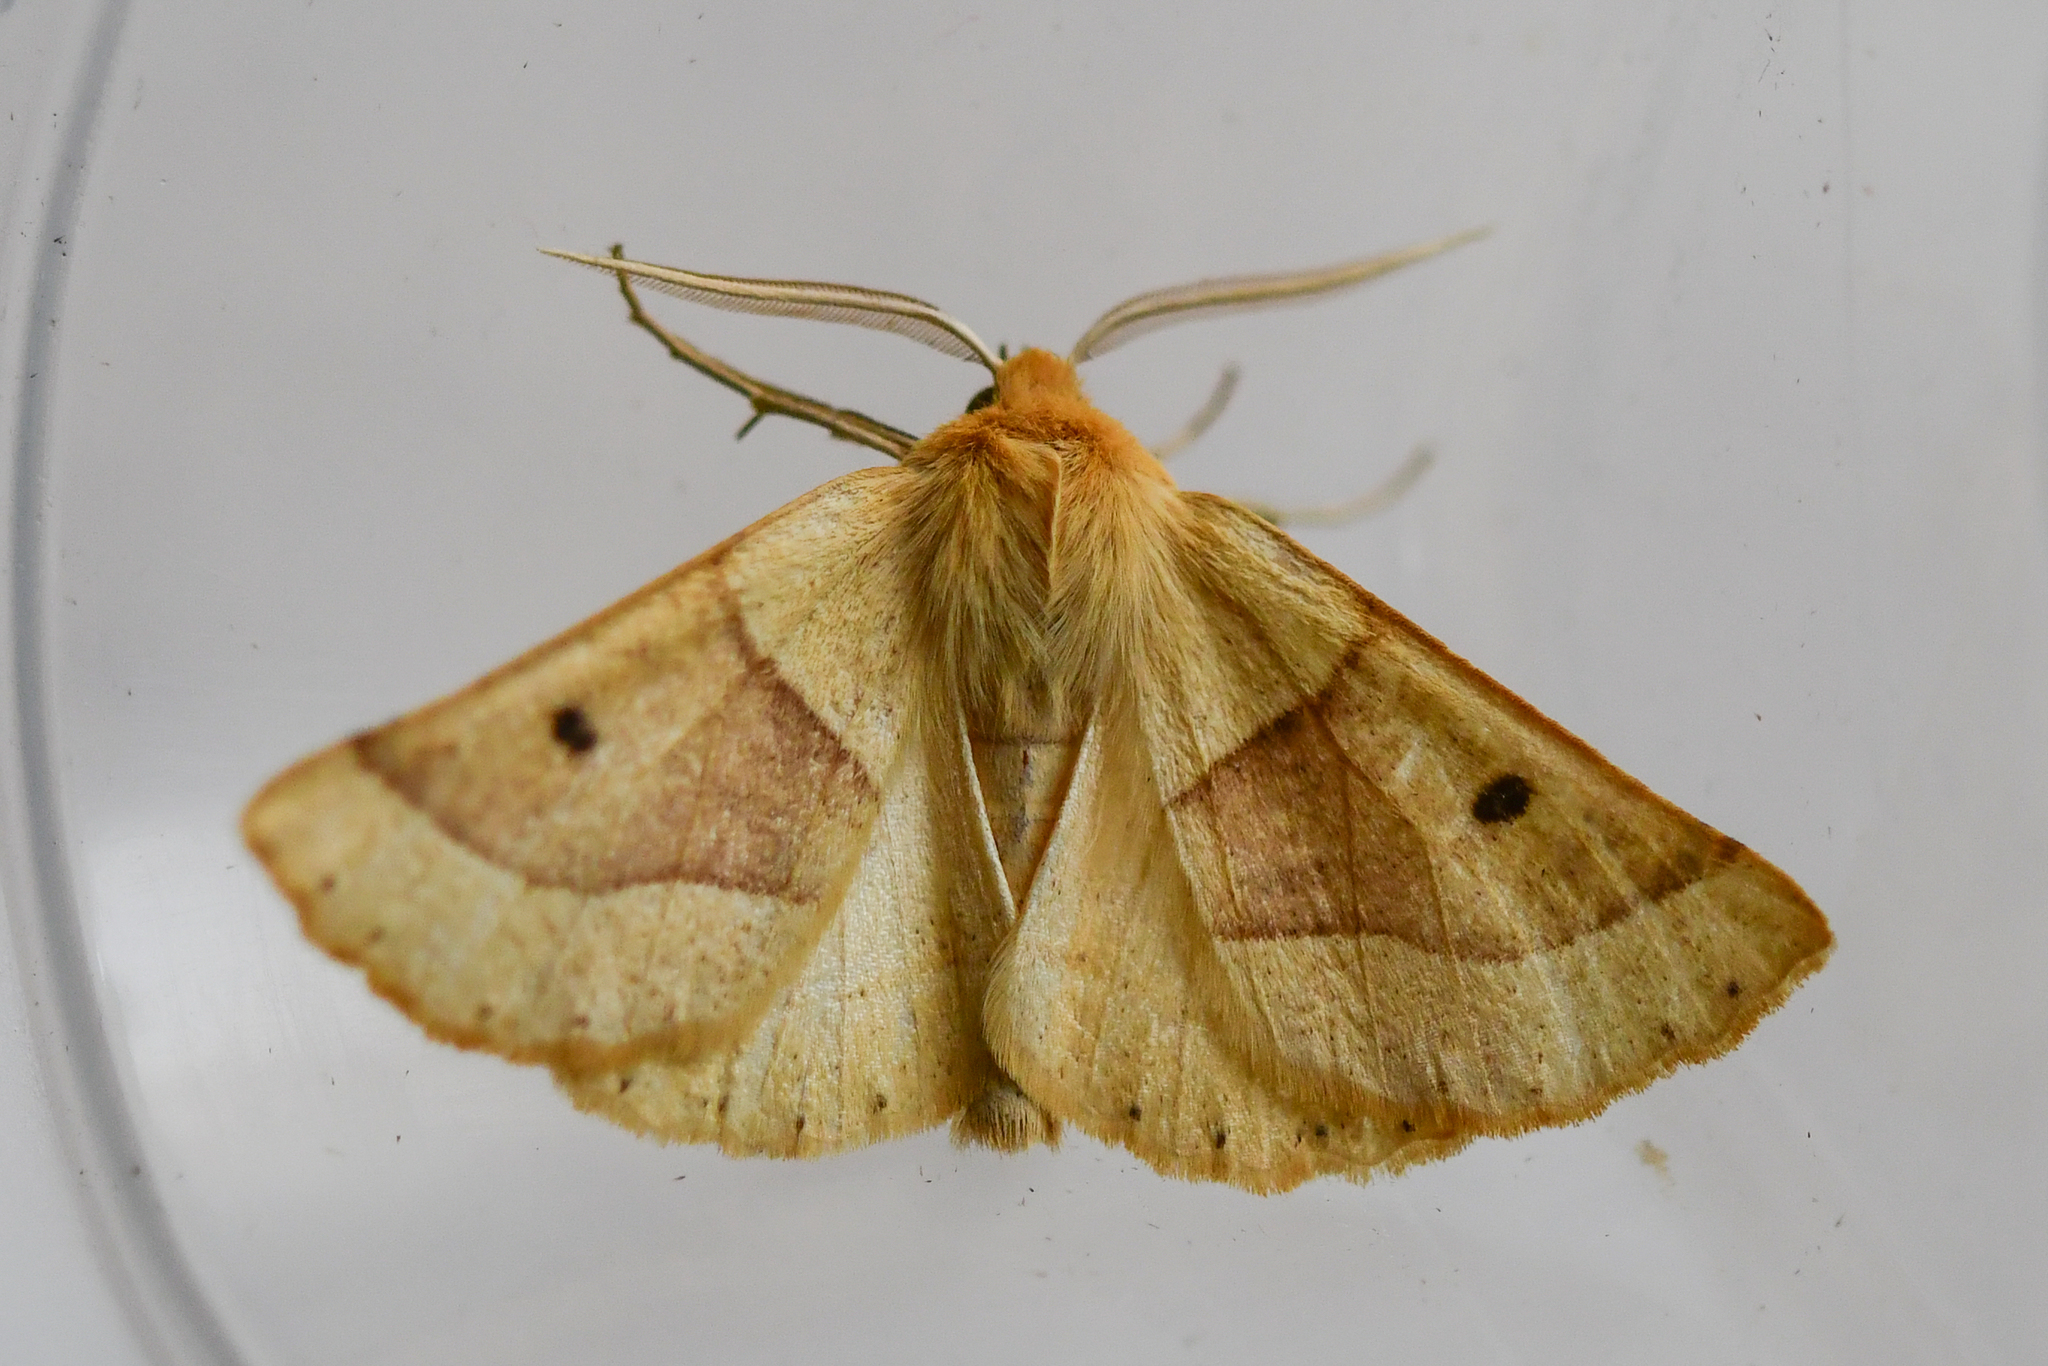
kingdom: Animalia
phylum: Arthropoda
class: Insecta
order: Lepidoptera
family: Geometridae
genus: Crocallis
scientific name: Crocallis elinguaria
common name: Scalloped oak
